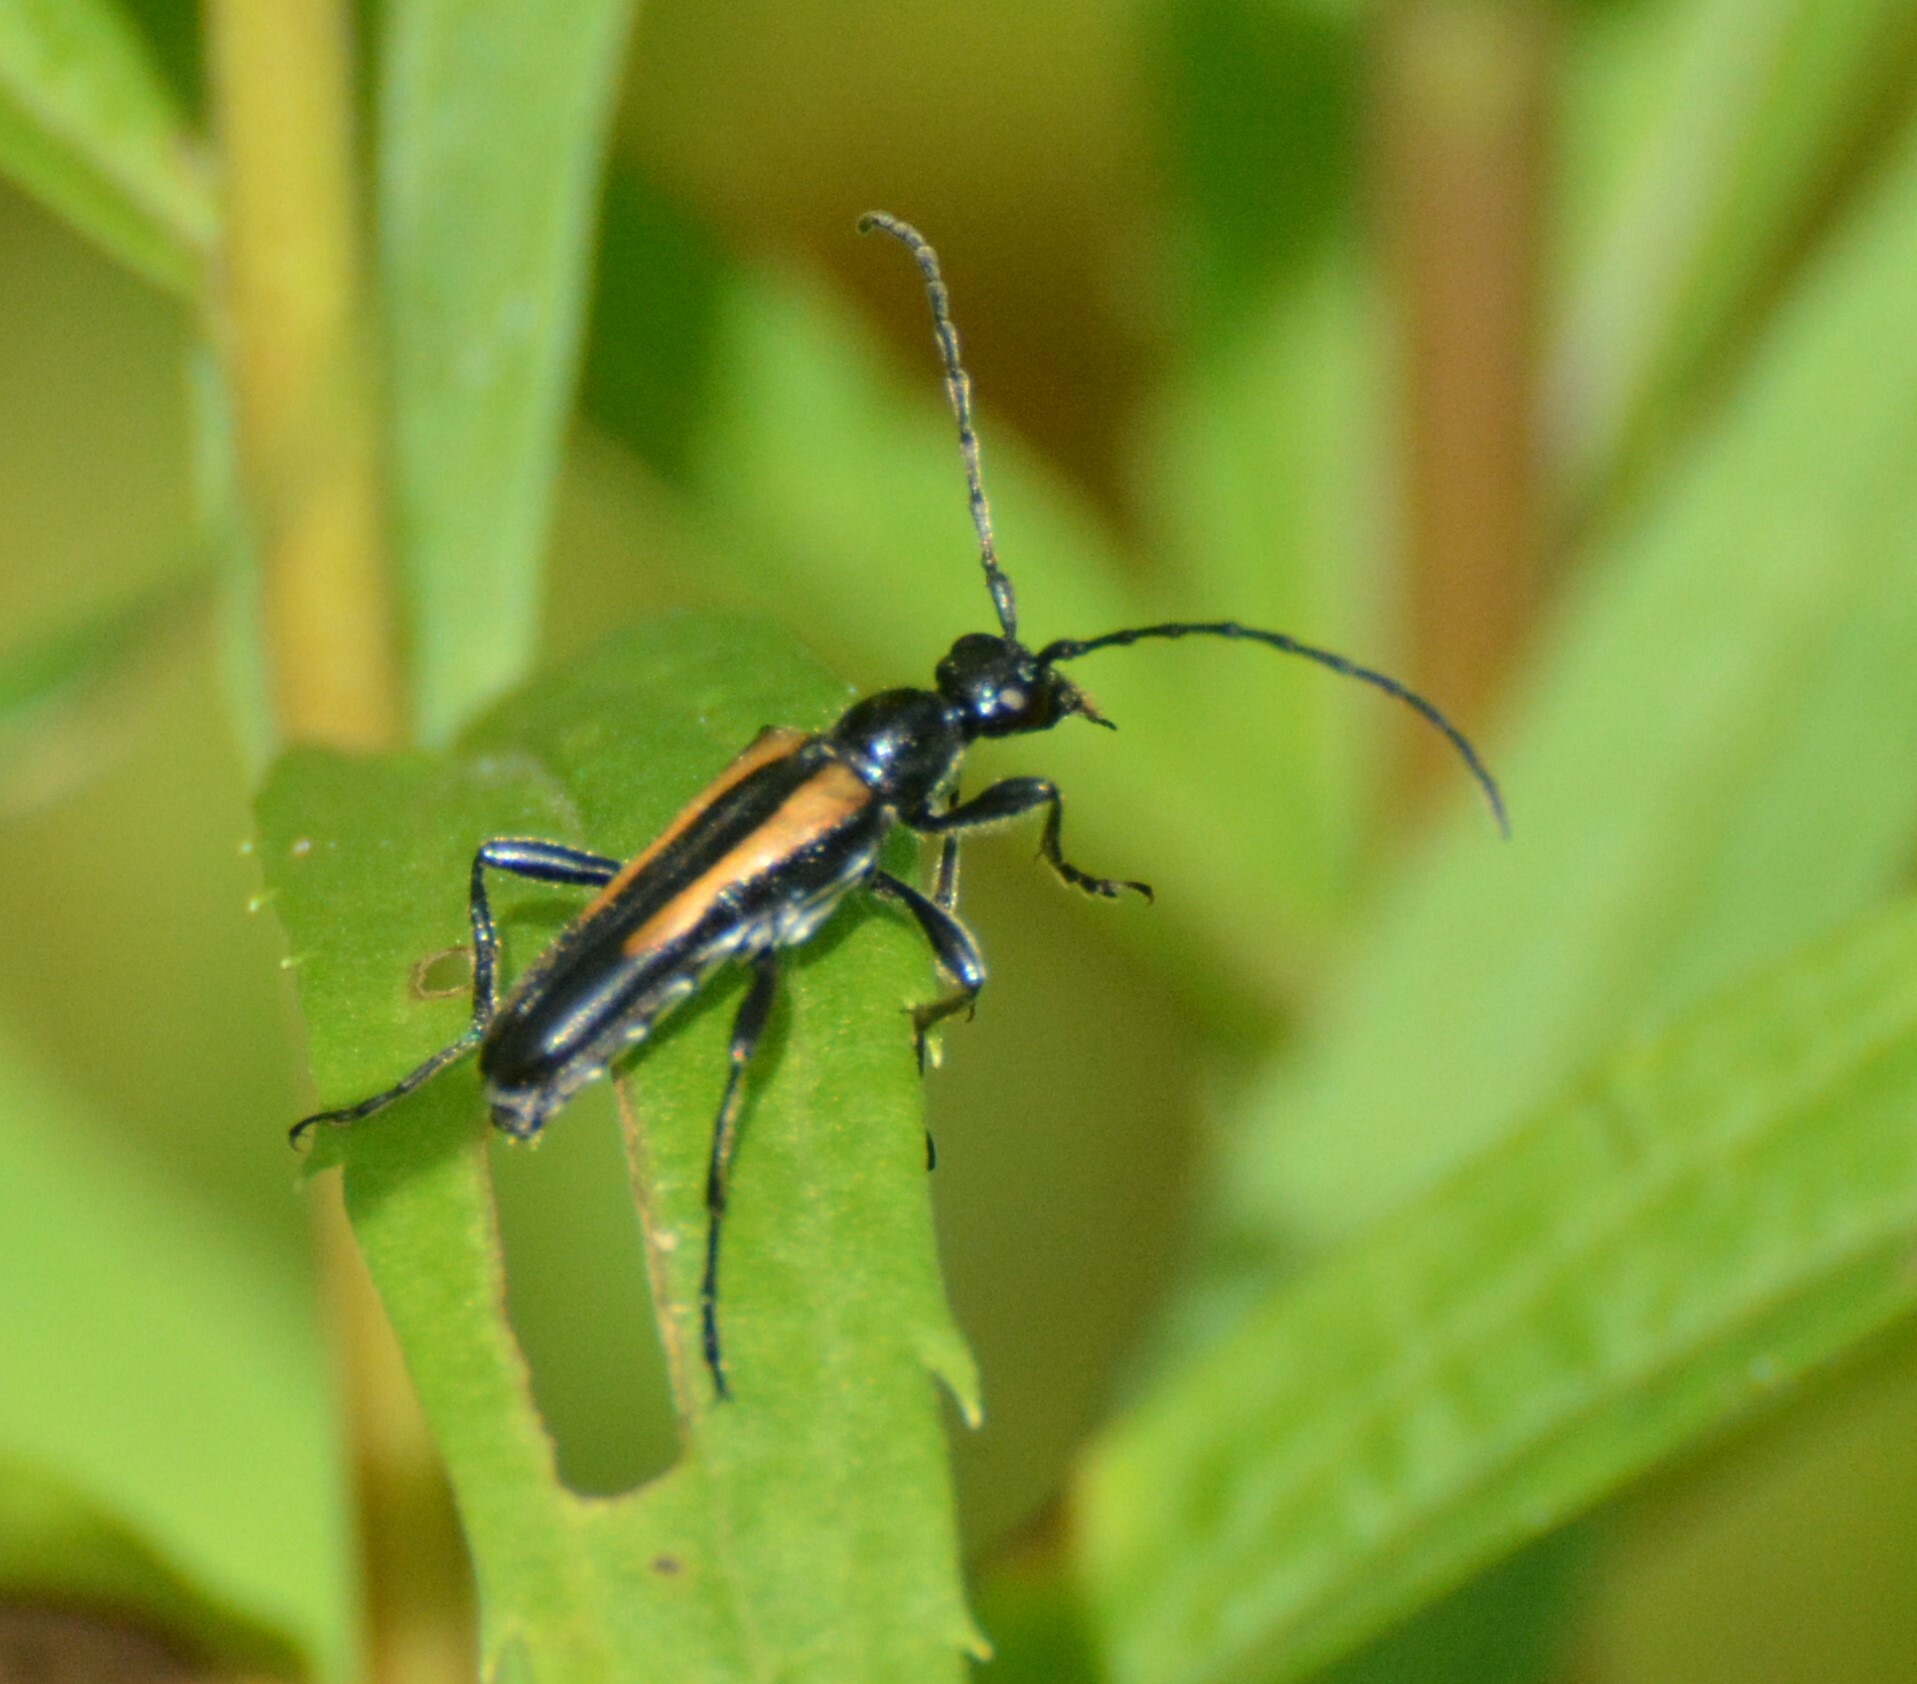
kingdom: Animalia
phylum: Arthropoda
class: Insecta
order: Coleoptera
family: Cerambycidae
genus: Strangalepta
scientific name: Strangalepta abbreviata
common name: Strangalepta flower longhorn beetle
